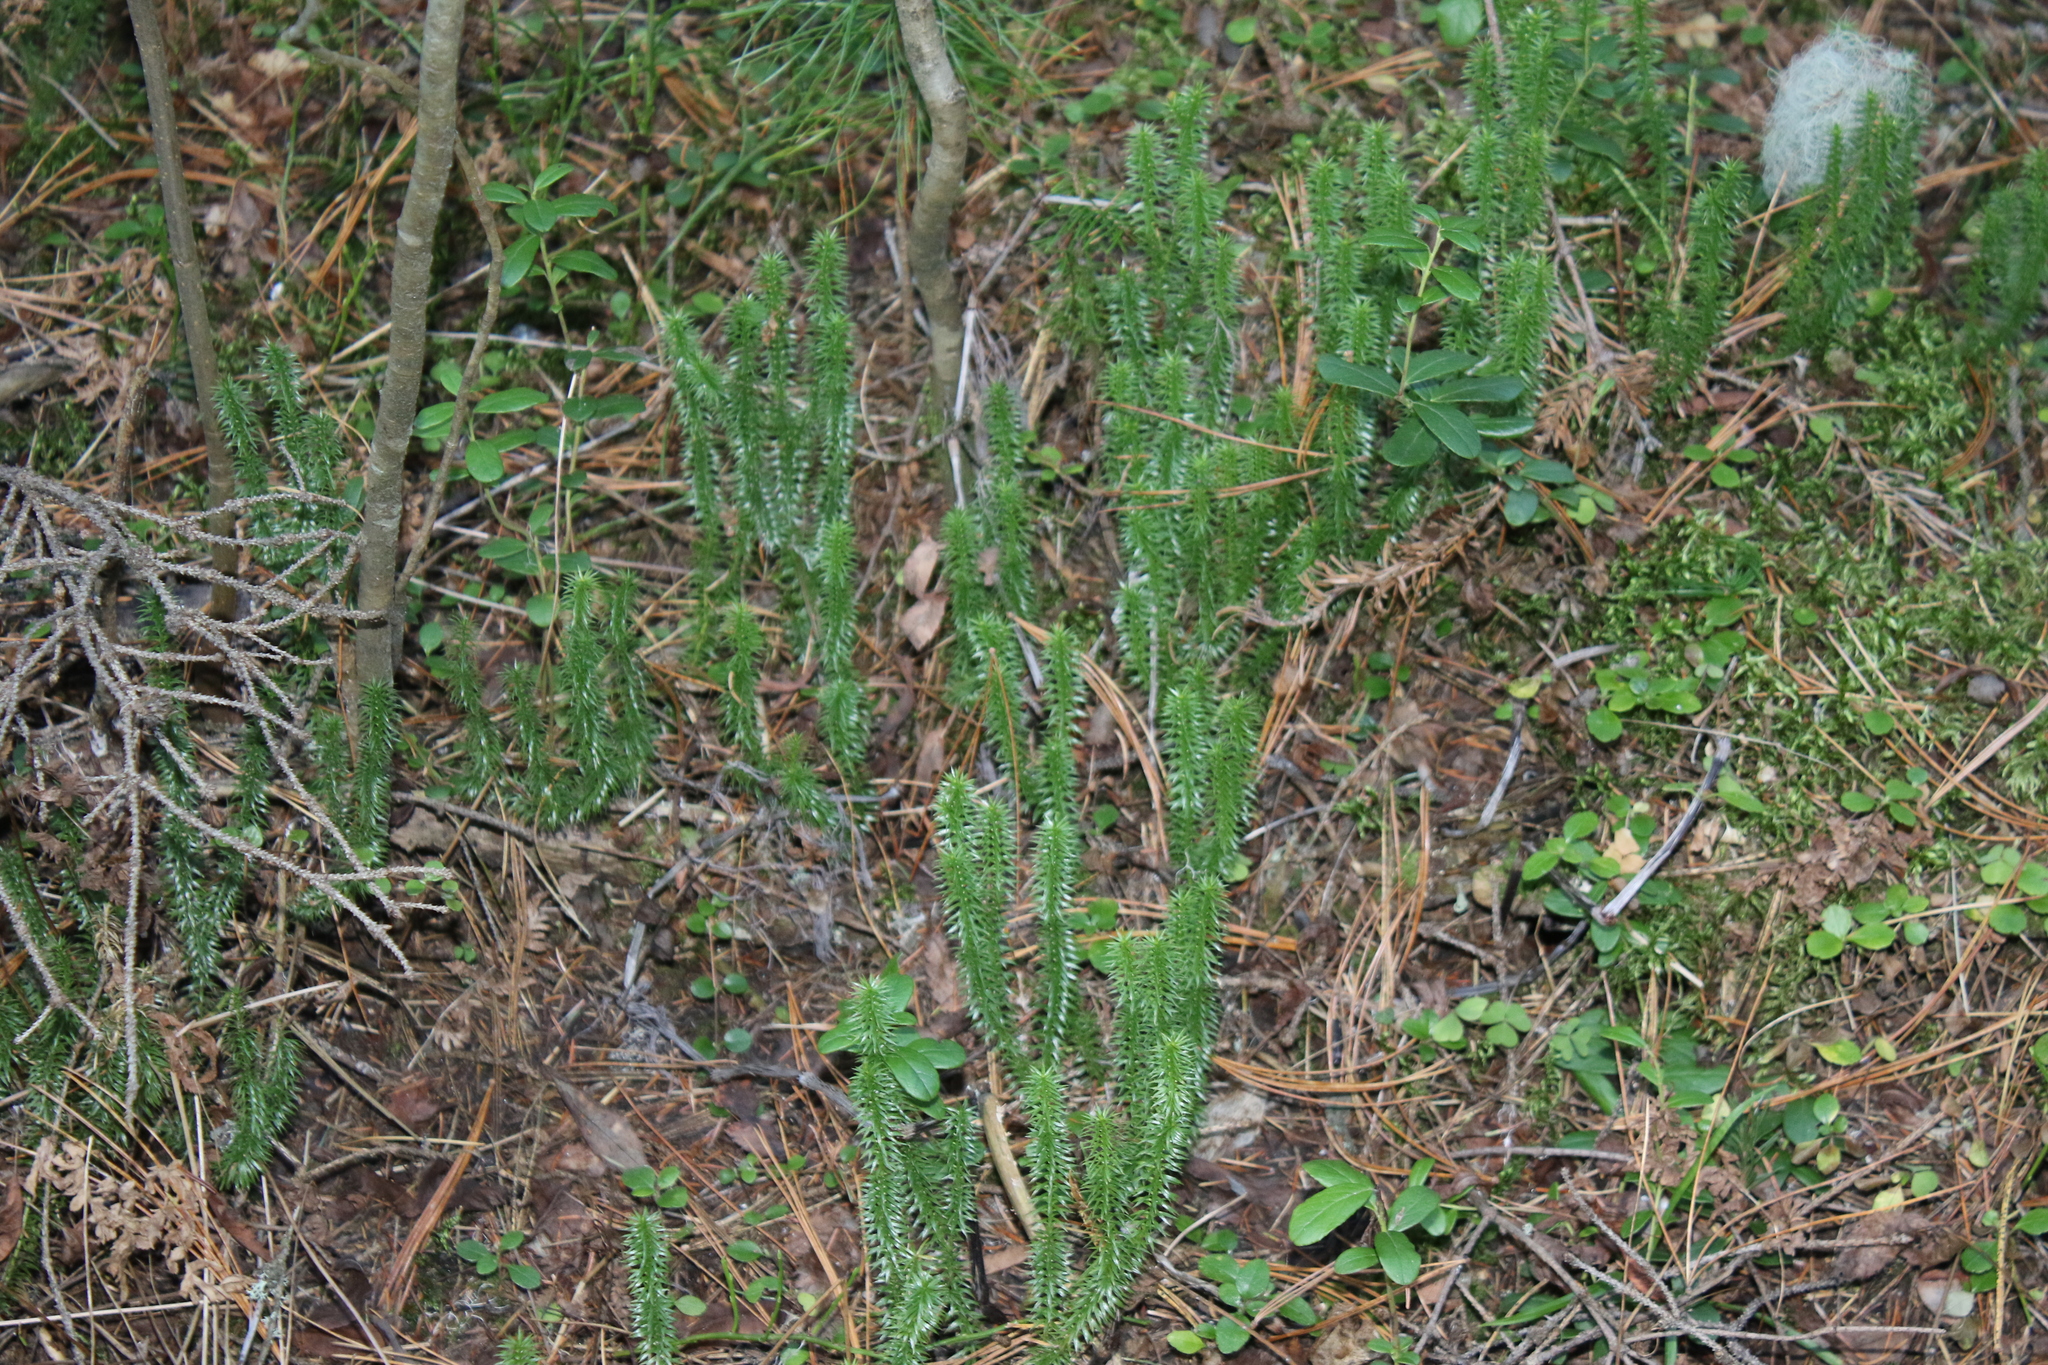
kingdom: Plantae
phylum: Tracheophyta
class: Lycopodiopsida
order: Lycopodiales
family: Lycopodiaceae
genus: Spinulum
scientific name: Spinulum annotinum
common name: Interrupted club-moss
